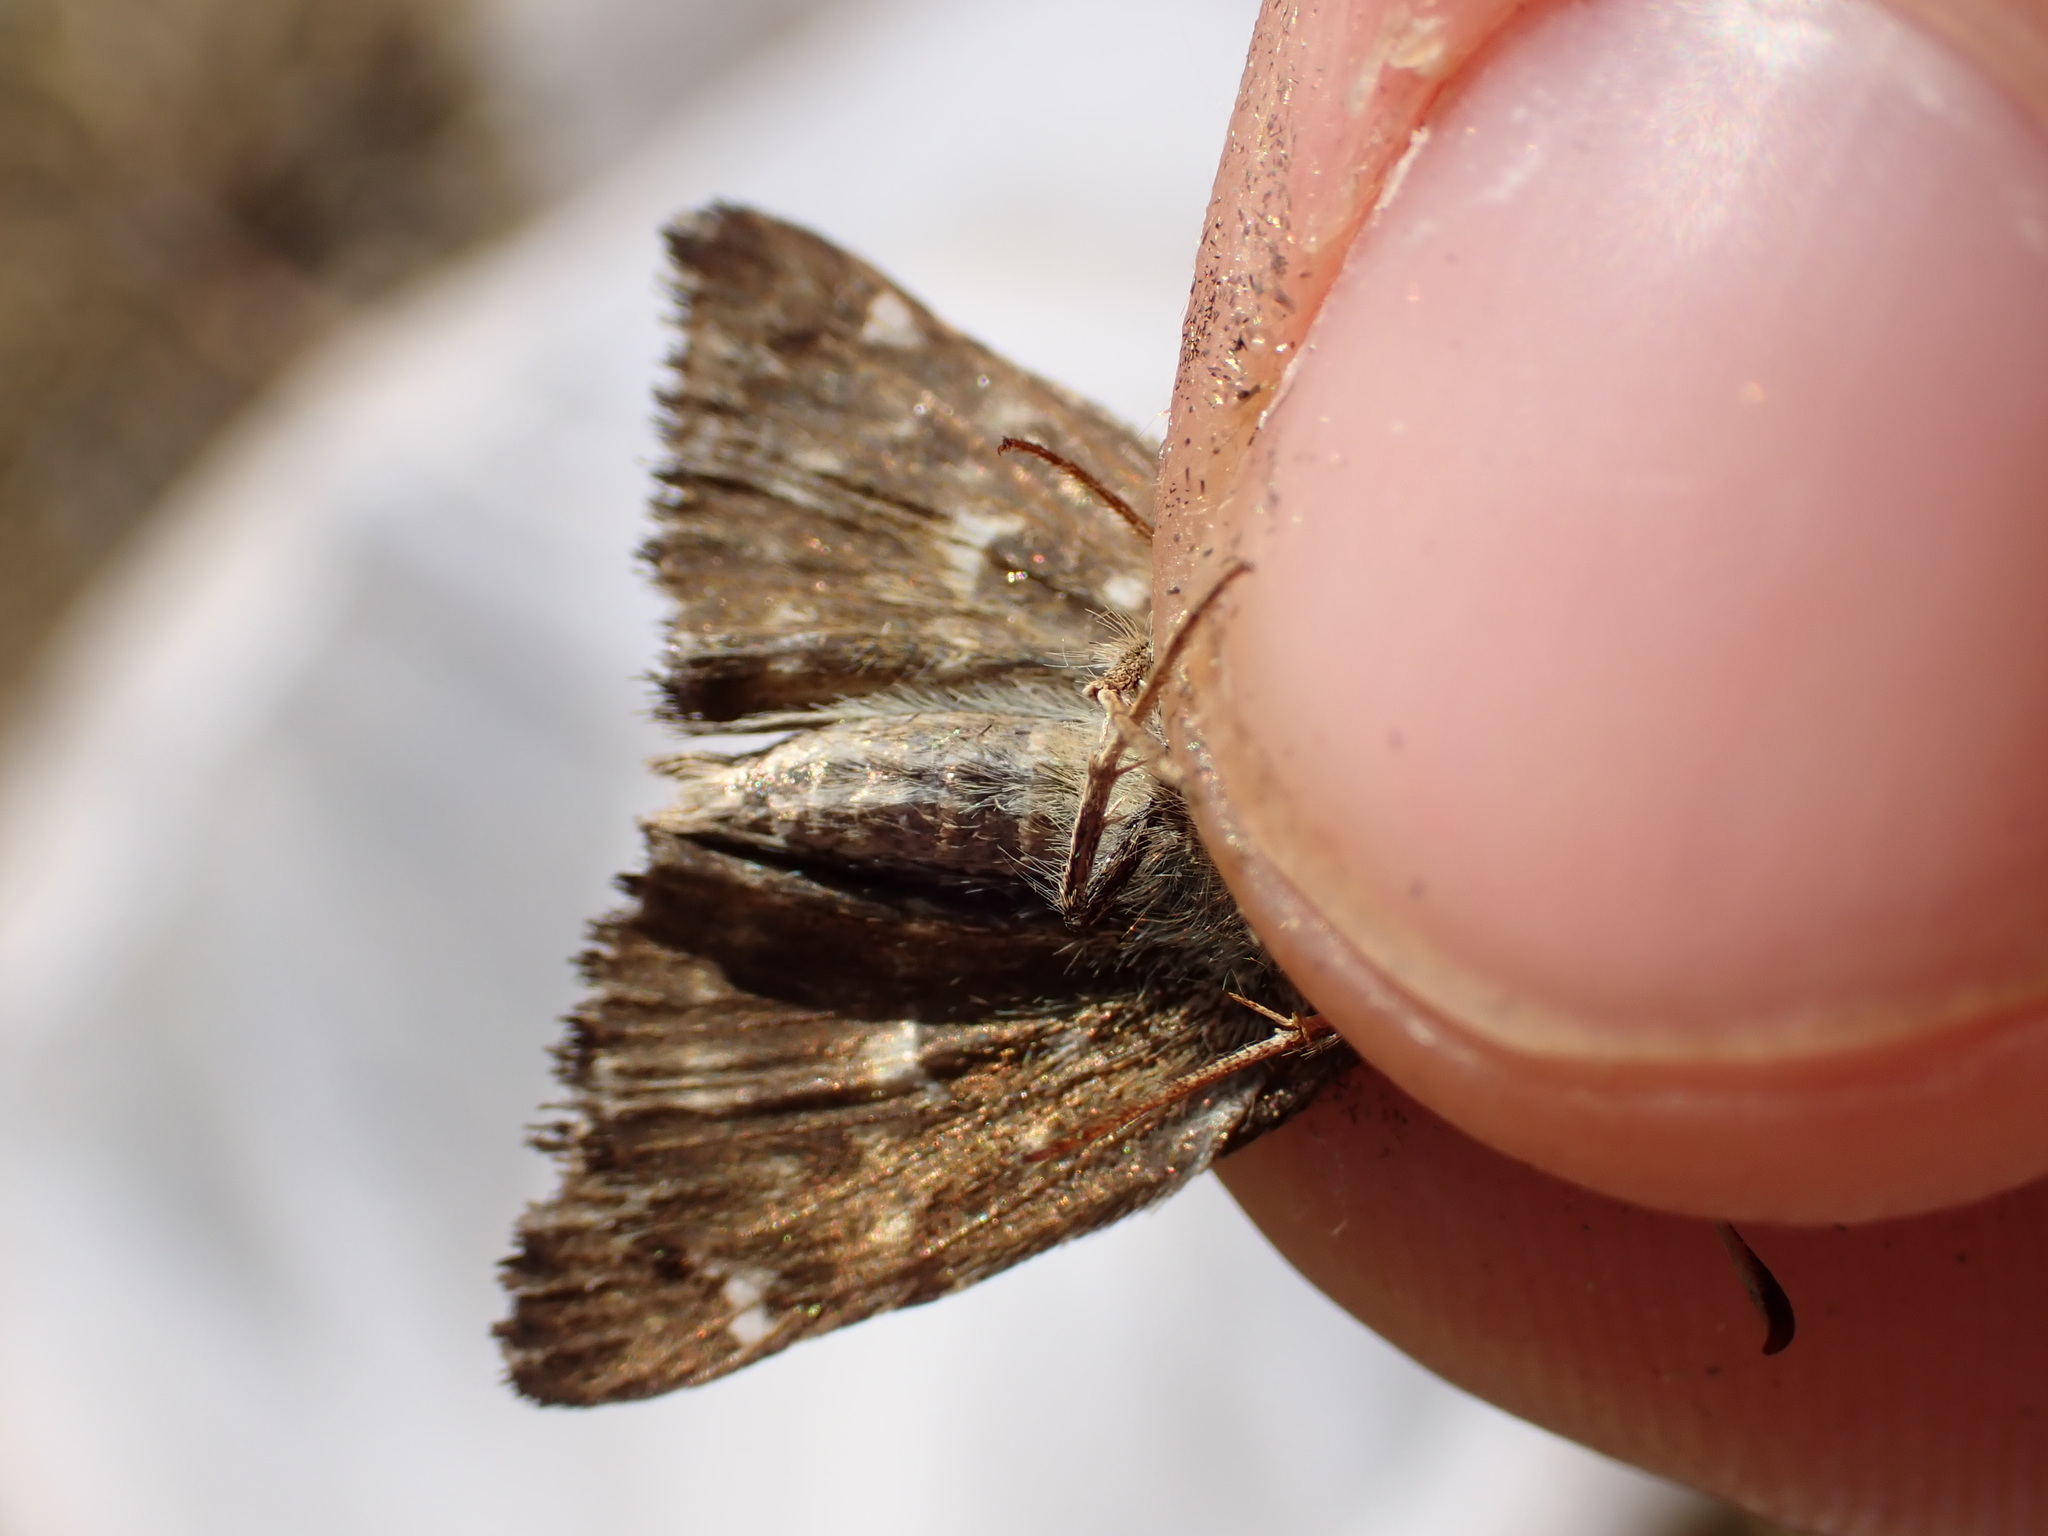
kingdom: Animalia
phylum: Arthropoda
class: Insecta
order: Lepidoptera
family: Hesperiidae
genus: Carcharodus
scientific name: Carcharodus alceae
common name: Mallow skipper
